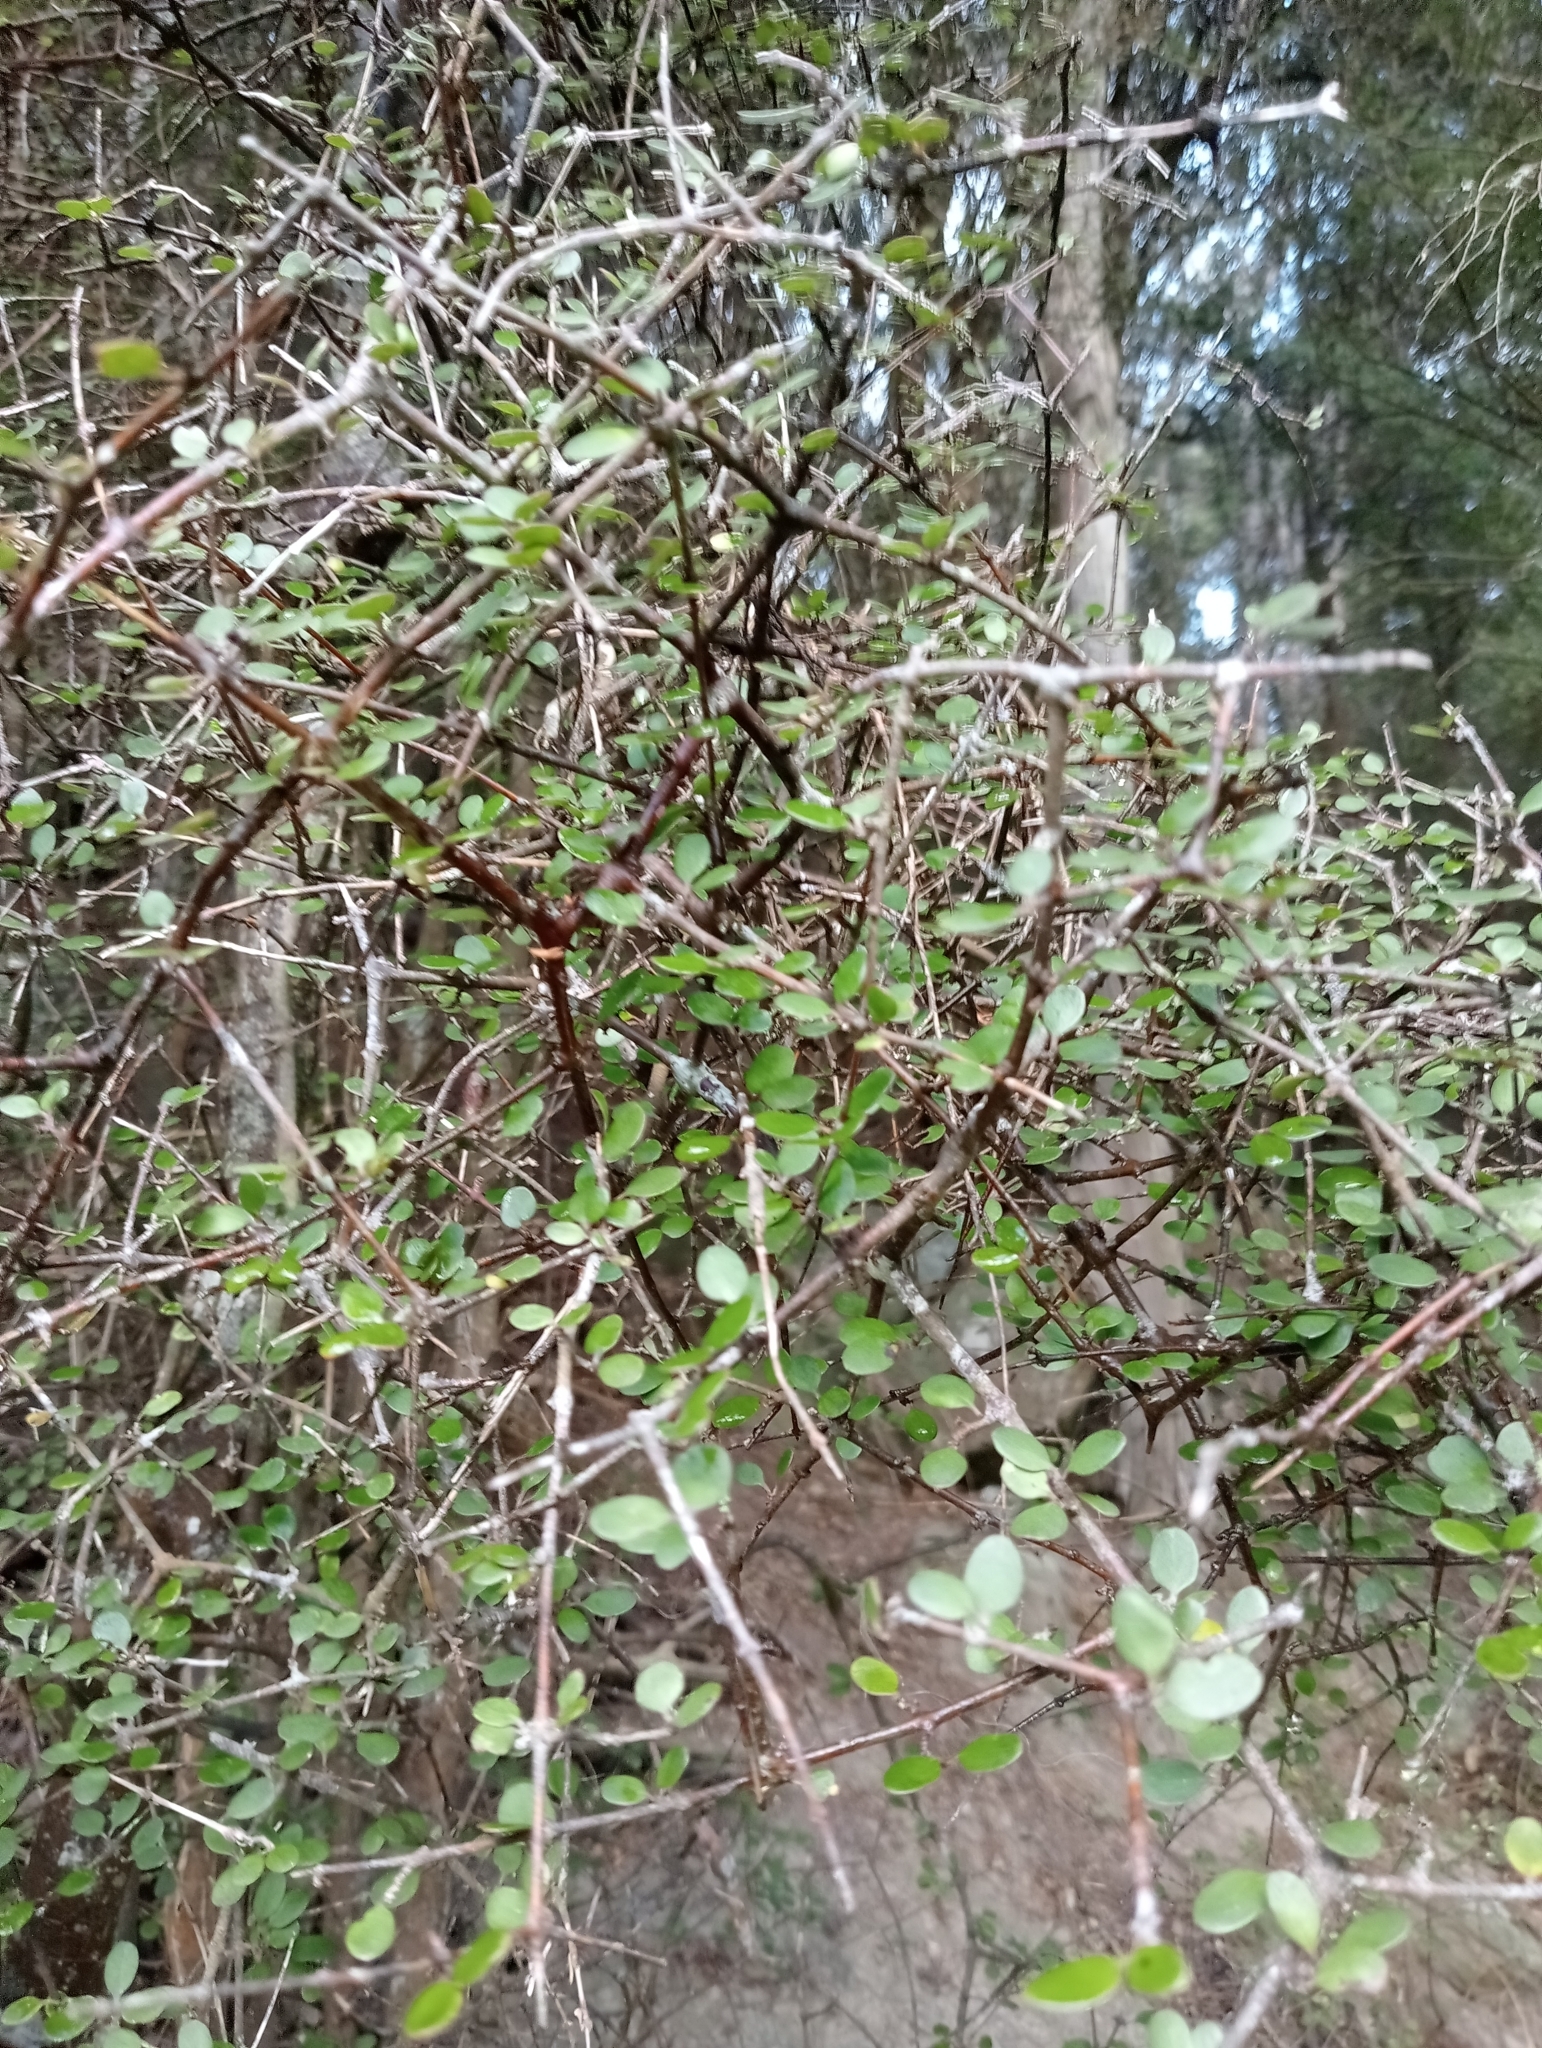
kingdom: Plantae
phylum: Tracheophyta
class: Magnoliopsida
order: Gentianales
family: Rubiaceae
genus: Coprosma
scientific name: Coprosma crassifolia
